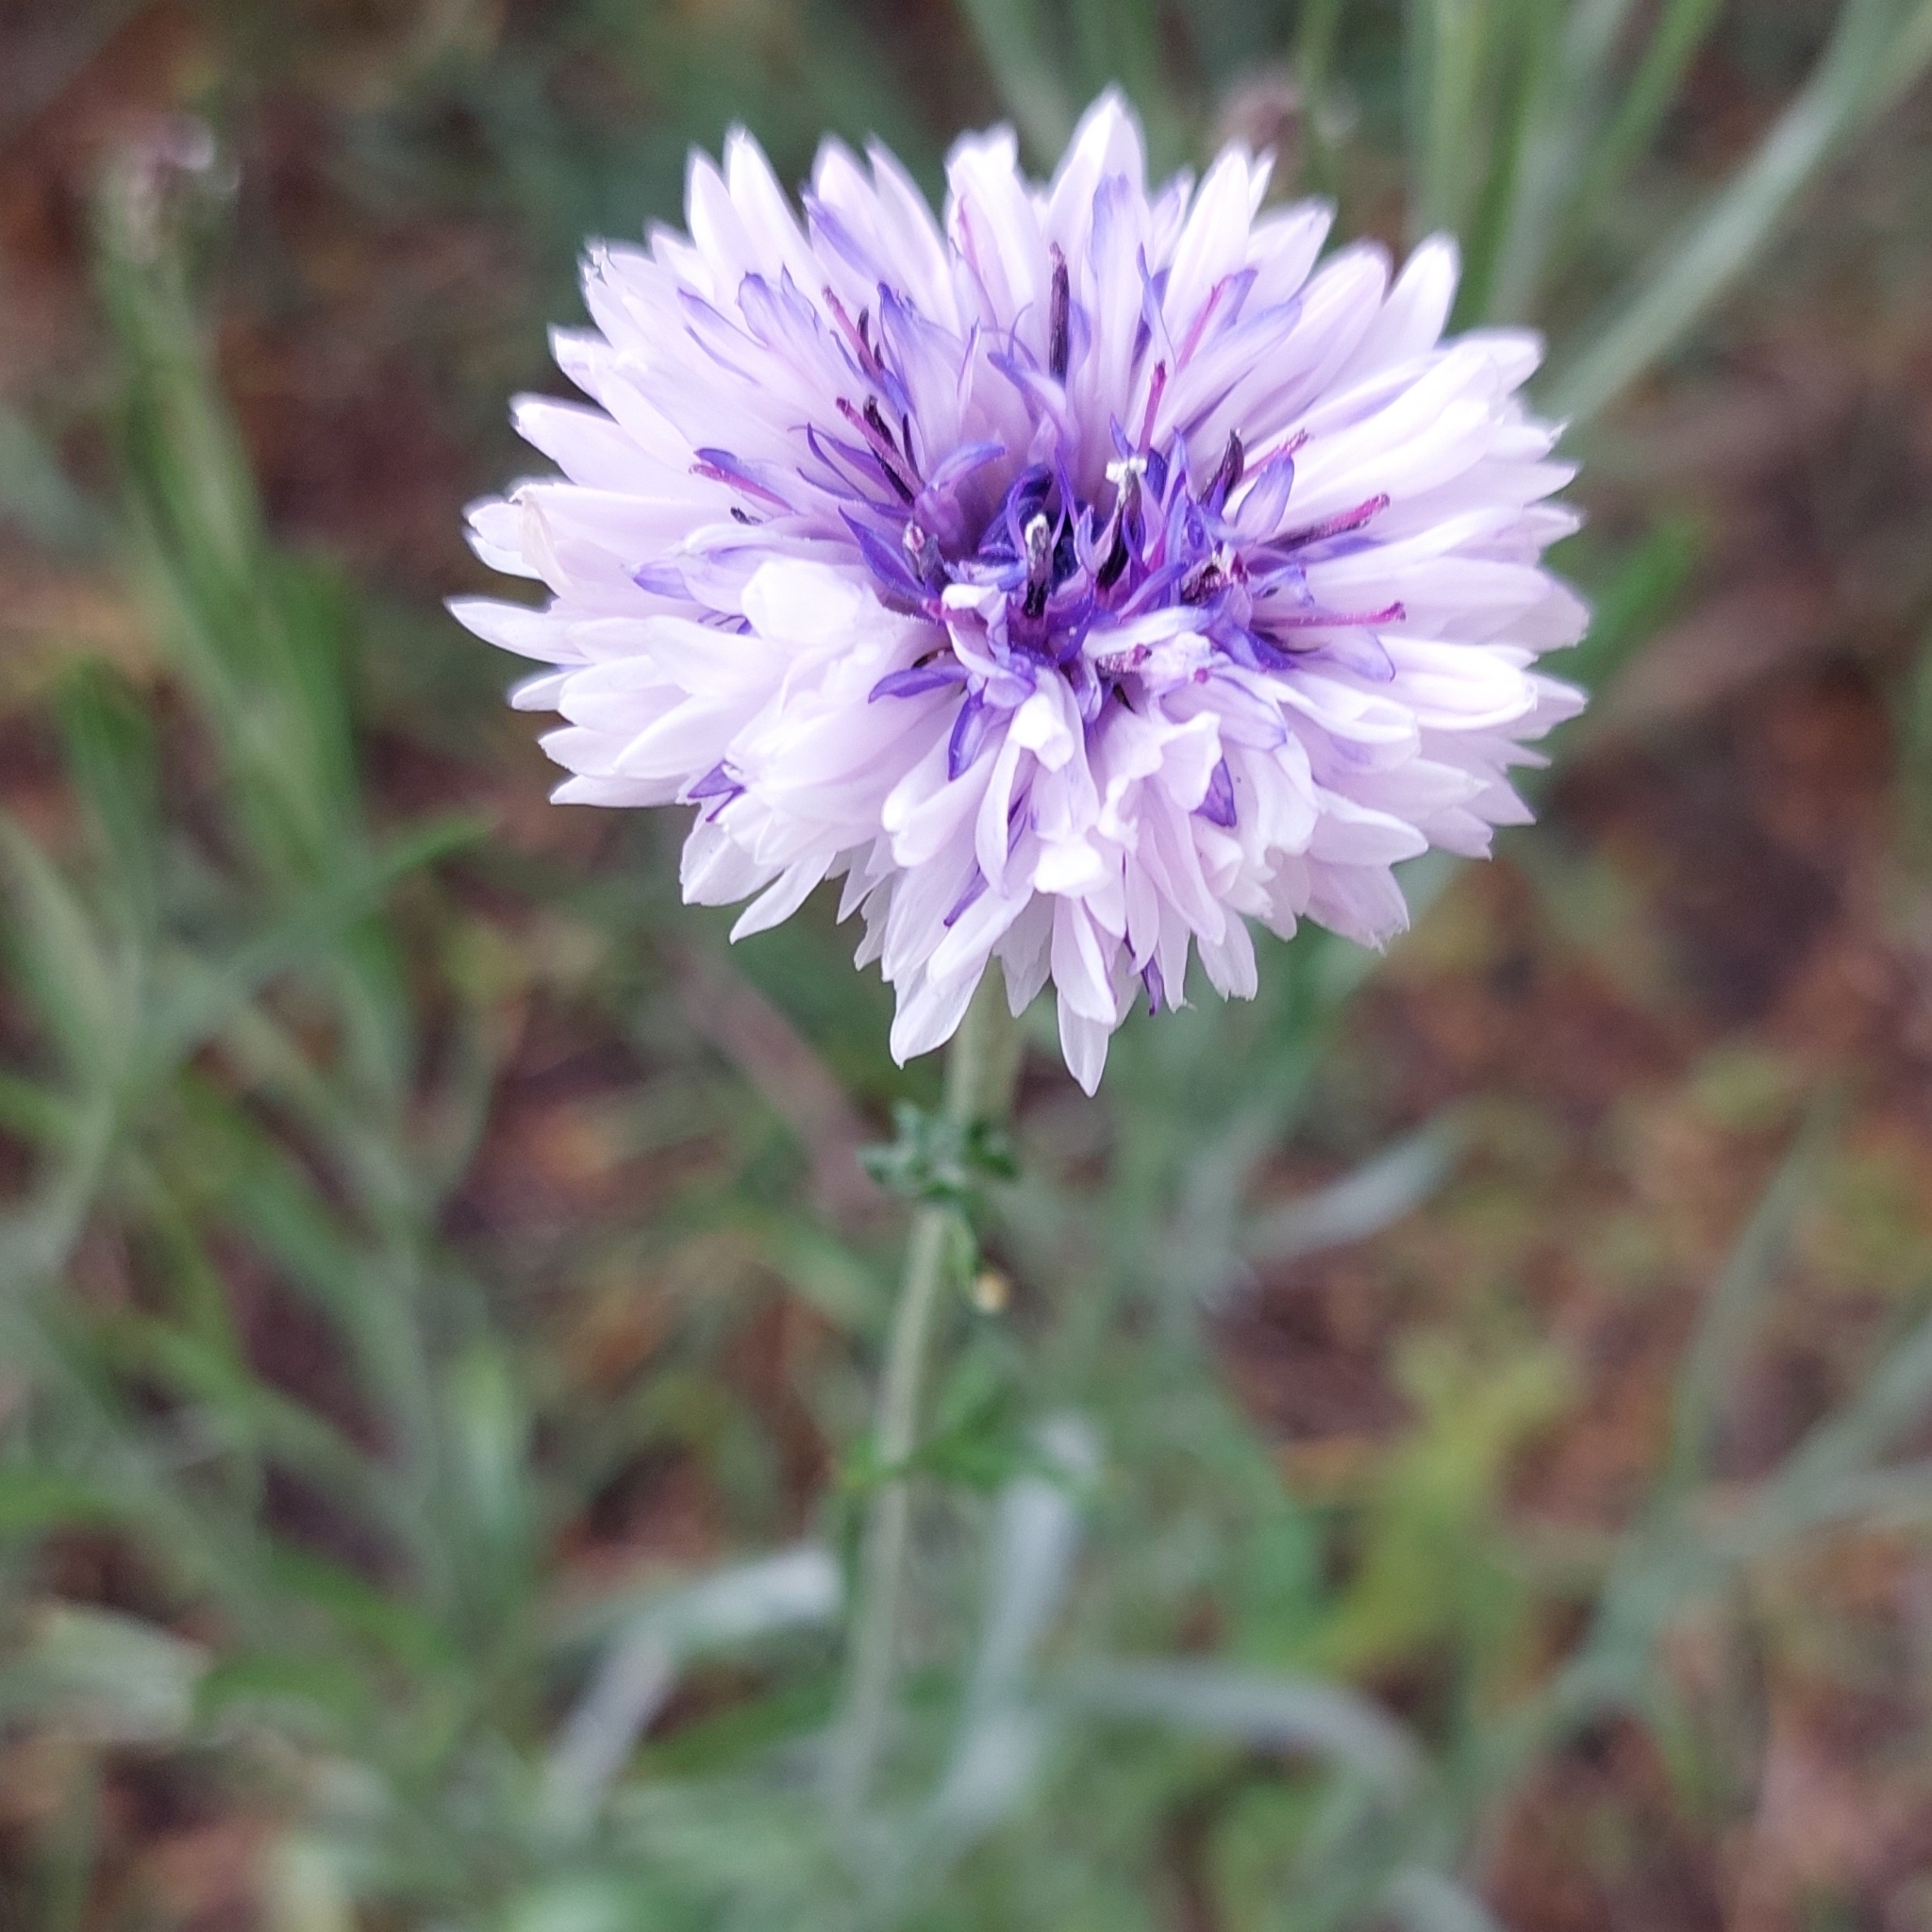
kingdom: Plantae
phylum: Tracheophyta
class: Magnoliopsida
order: Asterales
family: Asteraceae
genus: Centaurea
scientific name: Centaurea cyanus
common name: Cornflower
